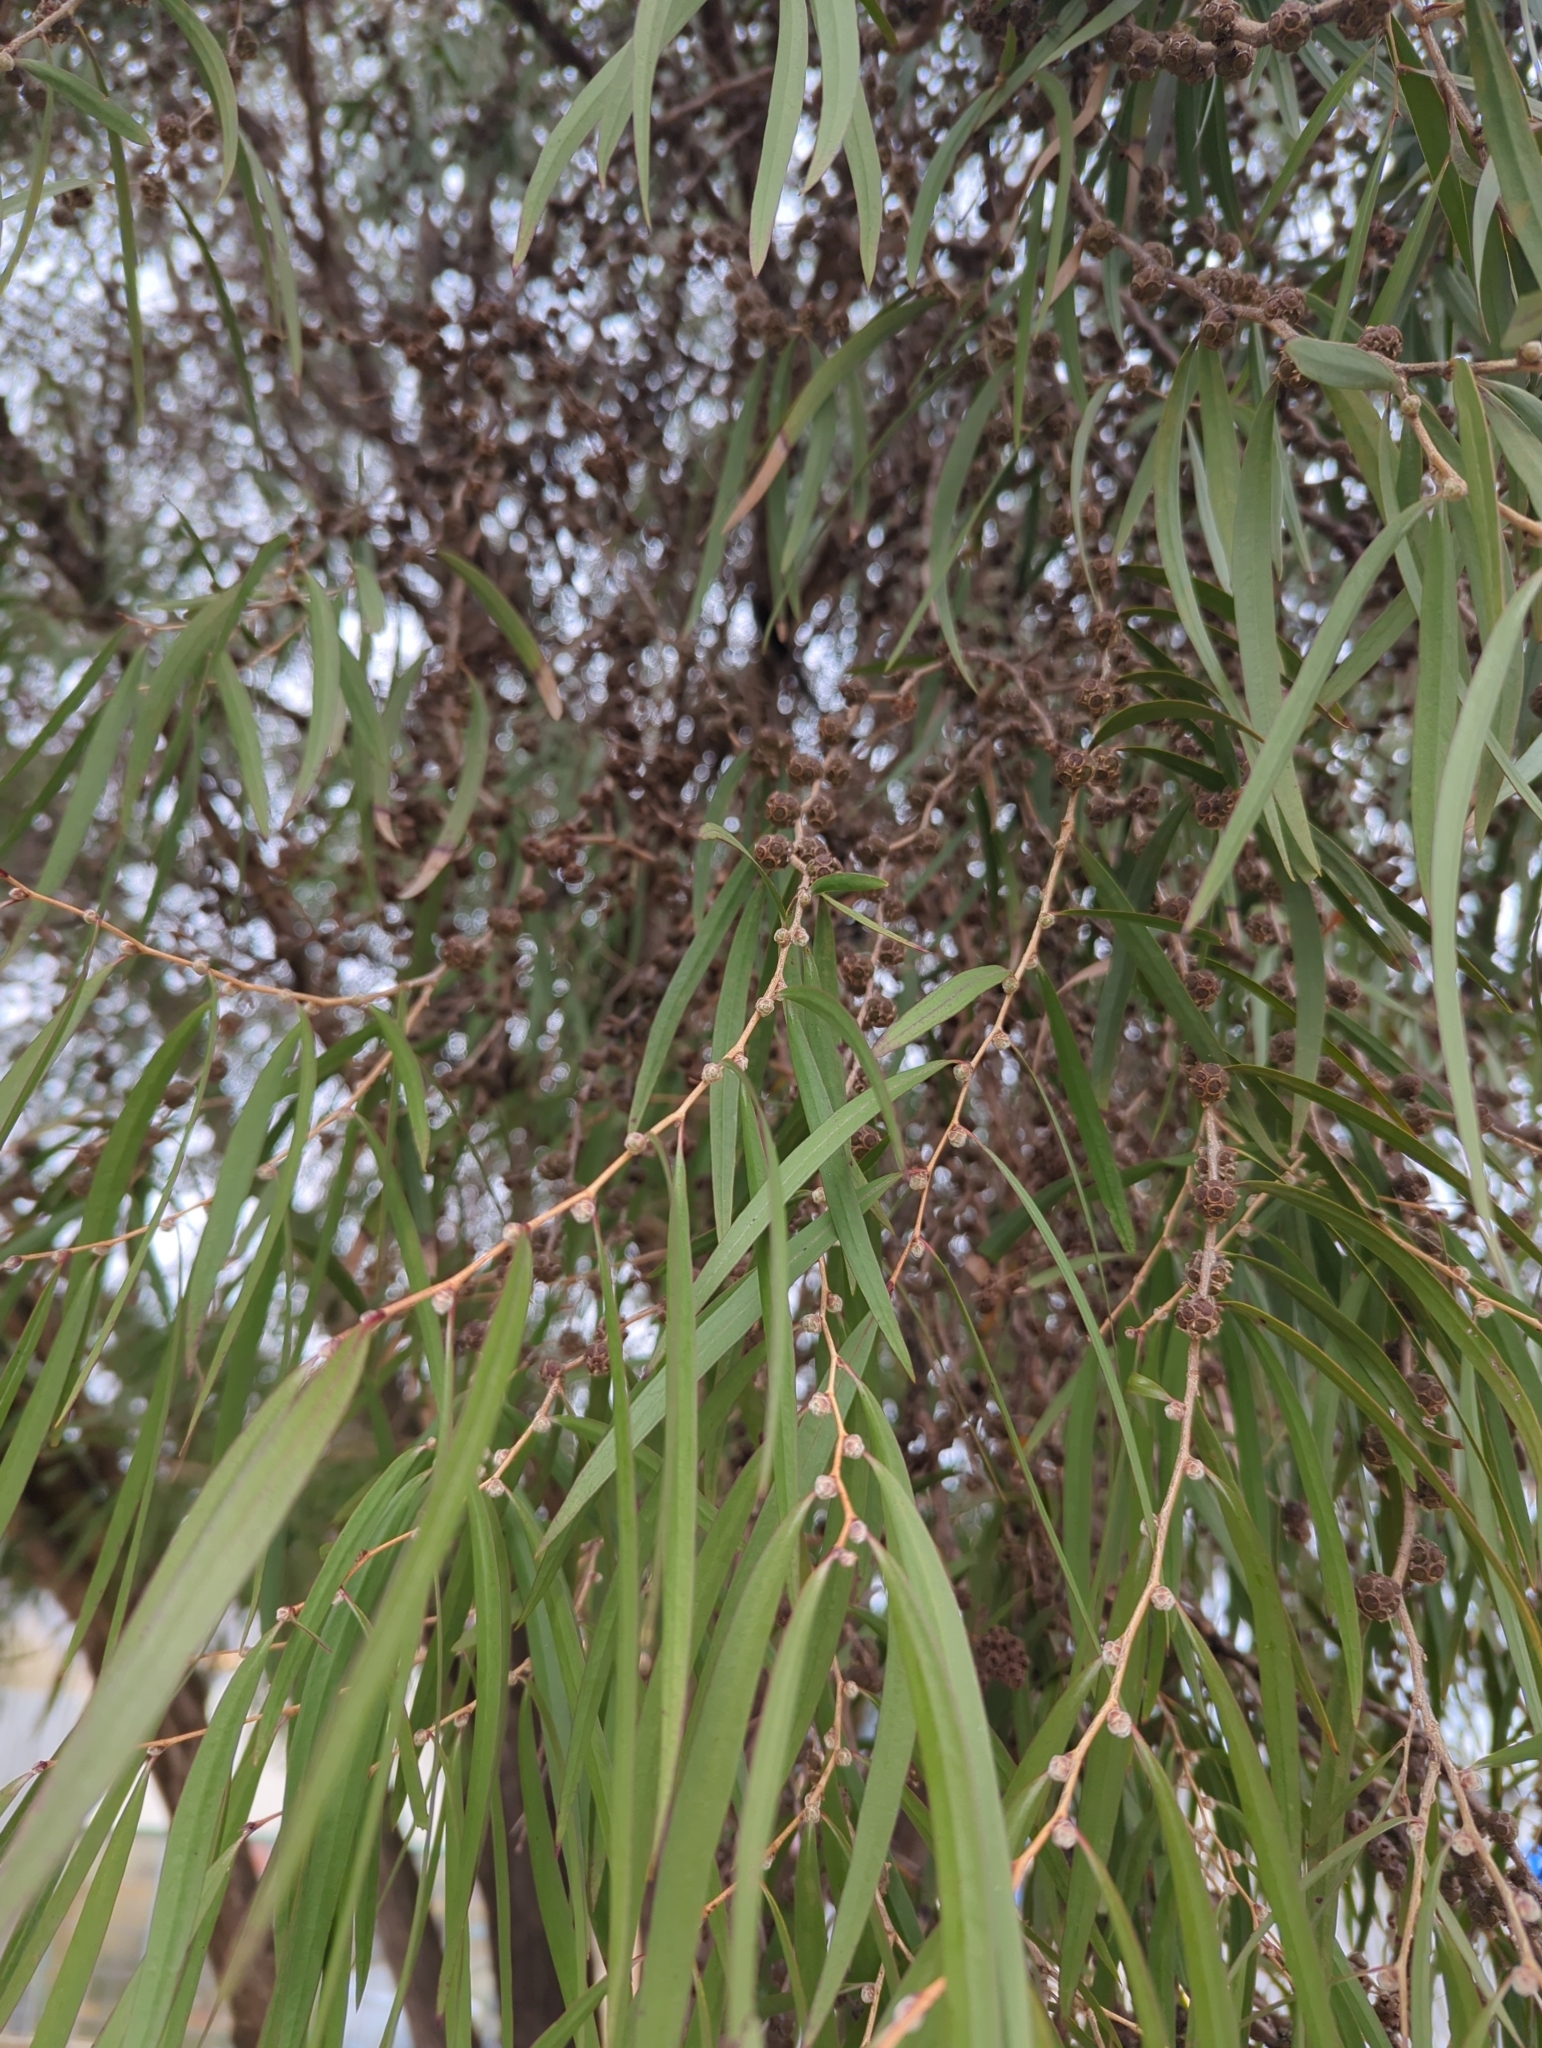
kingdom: Plantae
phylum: Tracheophyta
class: Magnoliopsida
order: Myrtales
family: Myrtaceae
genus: Agonis
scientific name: Agonis flexuosa
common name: Willow myrtle
